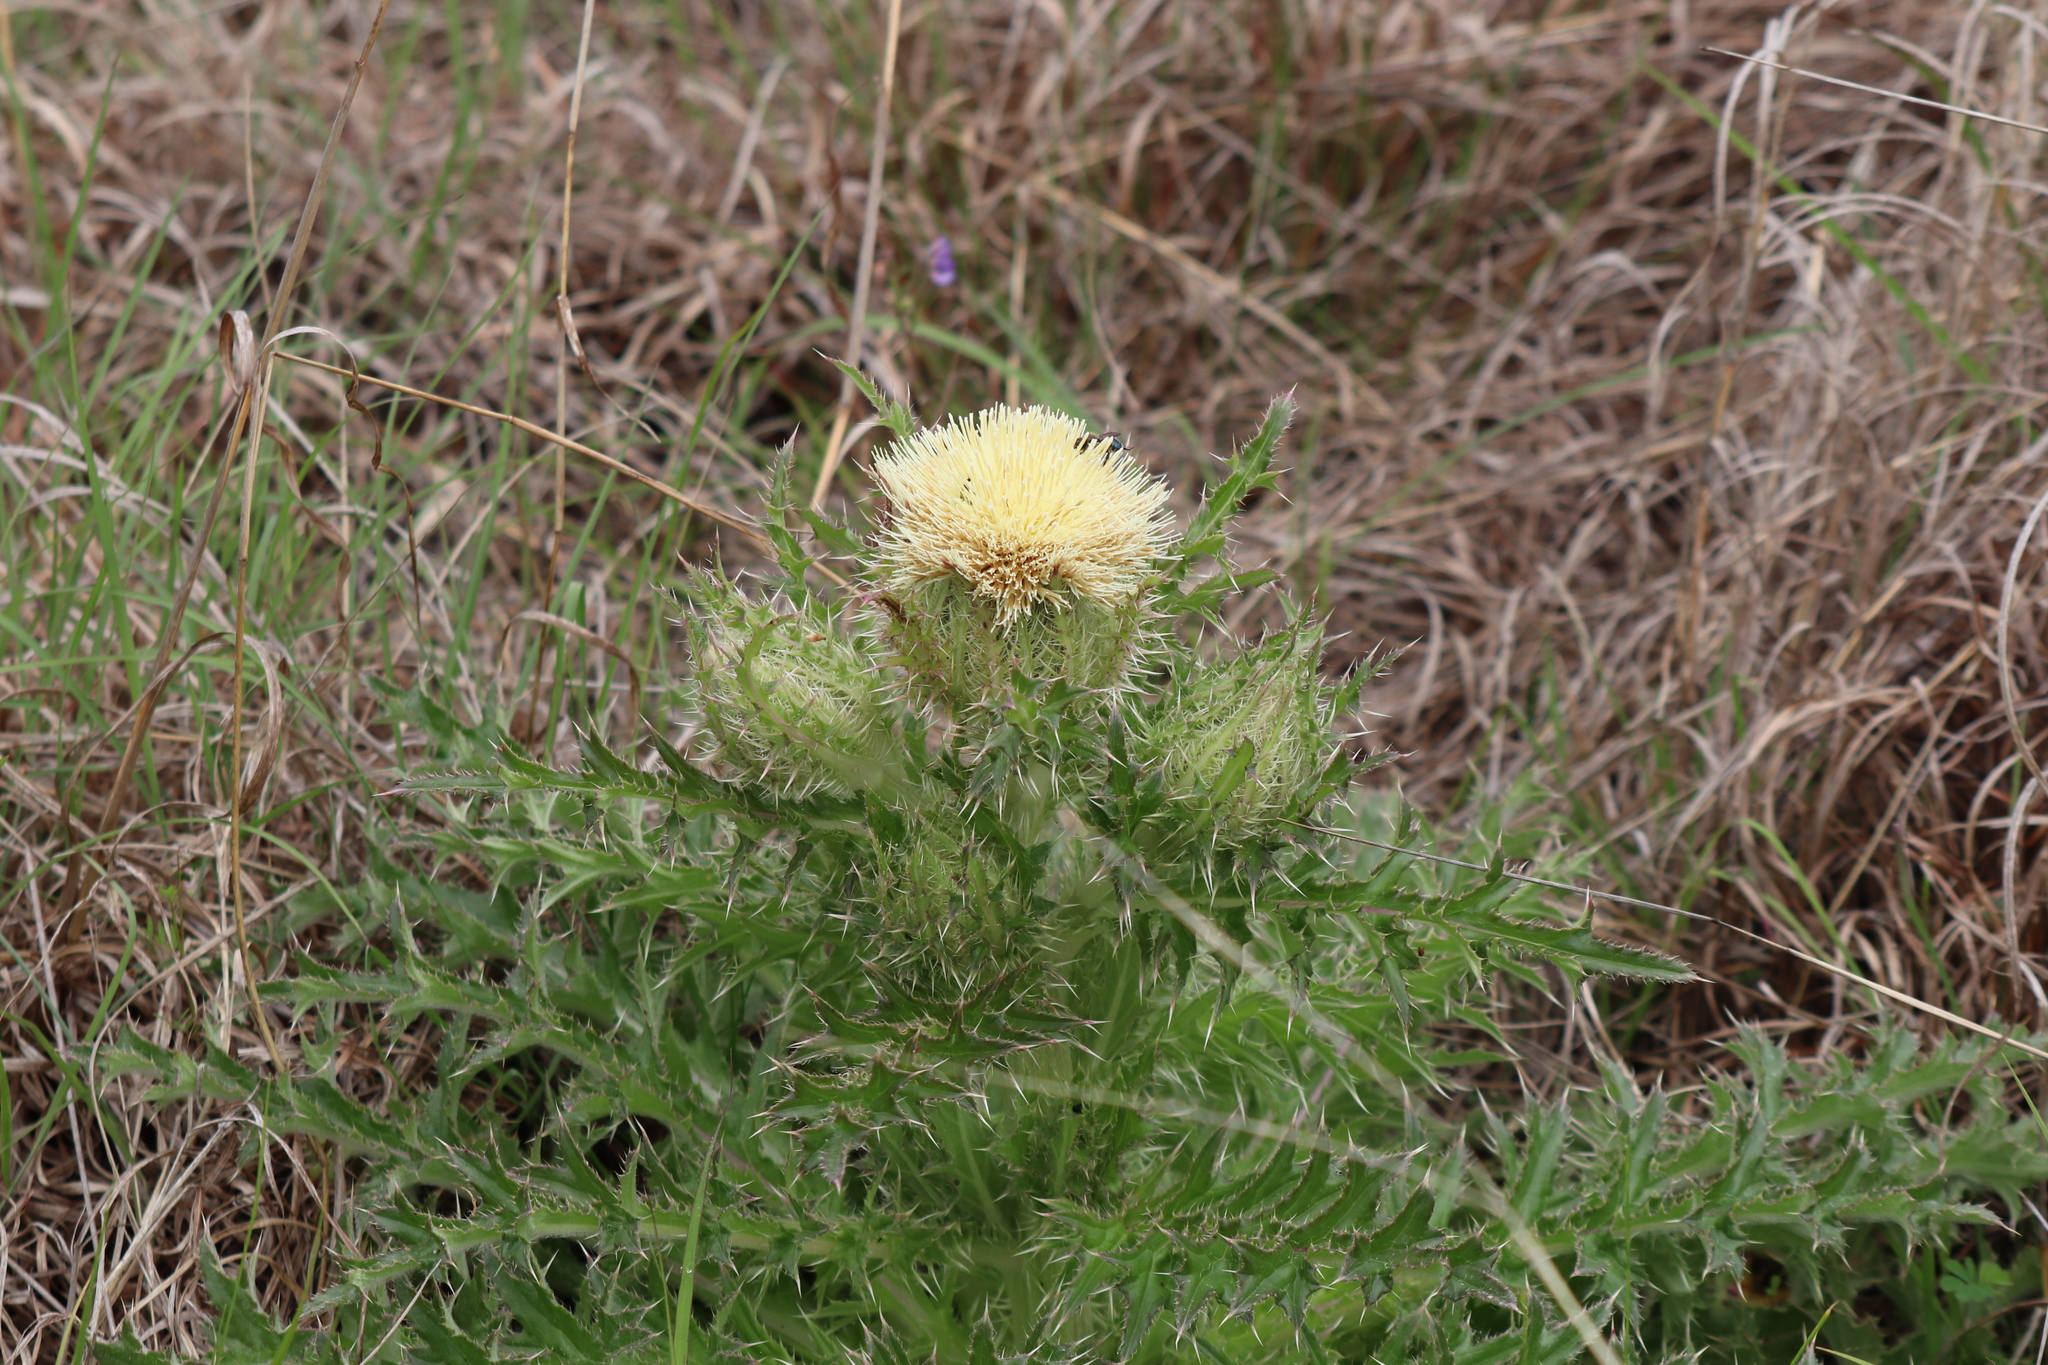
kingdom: Plantae
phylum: Tracheophyta
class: Magnoliopsida
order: Asterales
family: Asteraceae
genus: Cirsium
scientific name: Cirsium horridulum
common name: Bristly thistle
